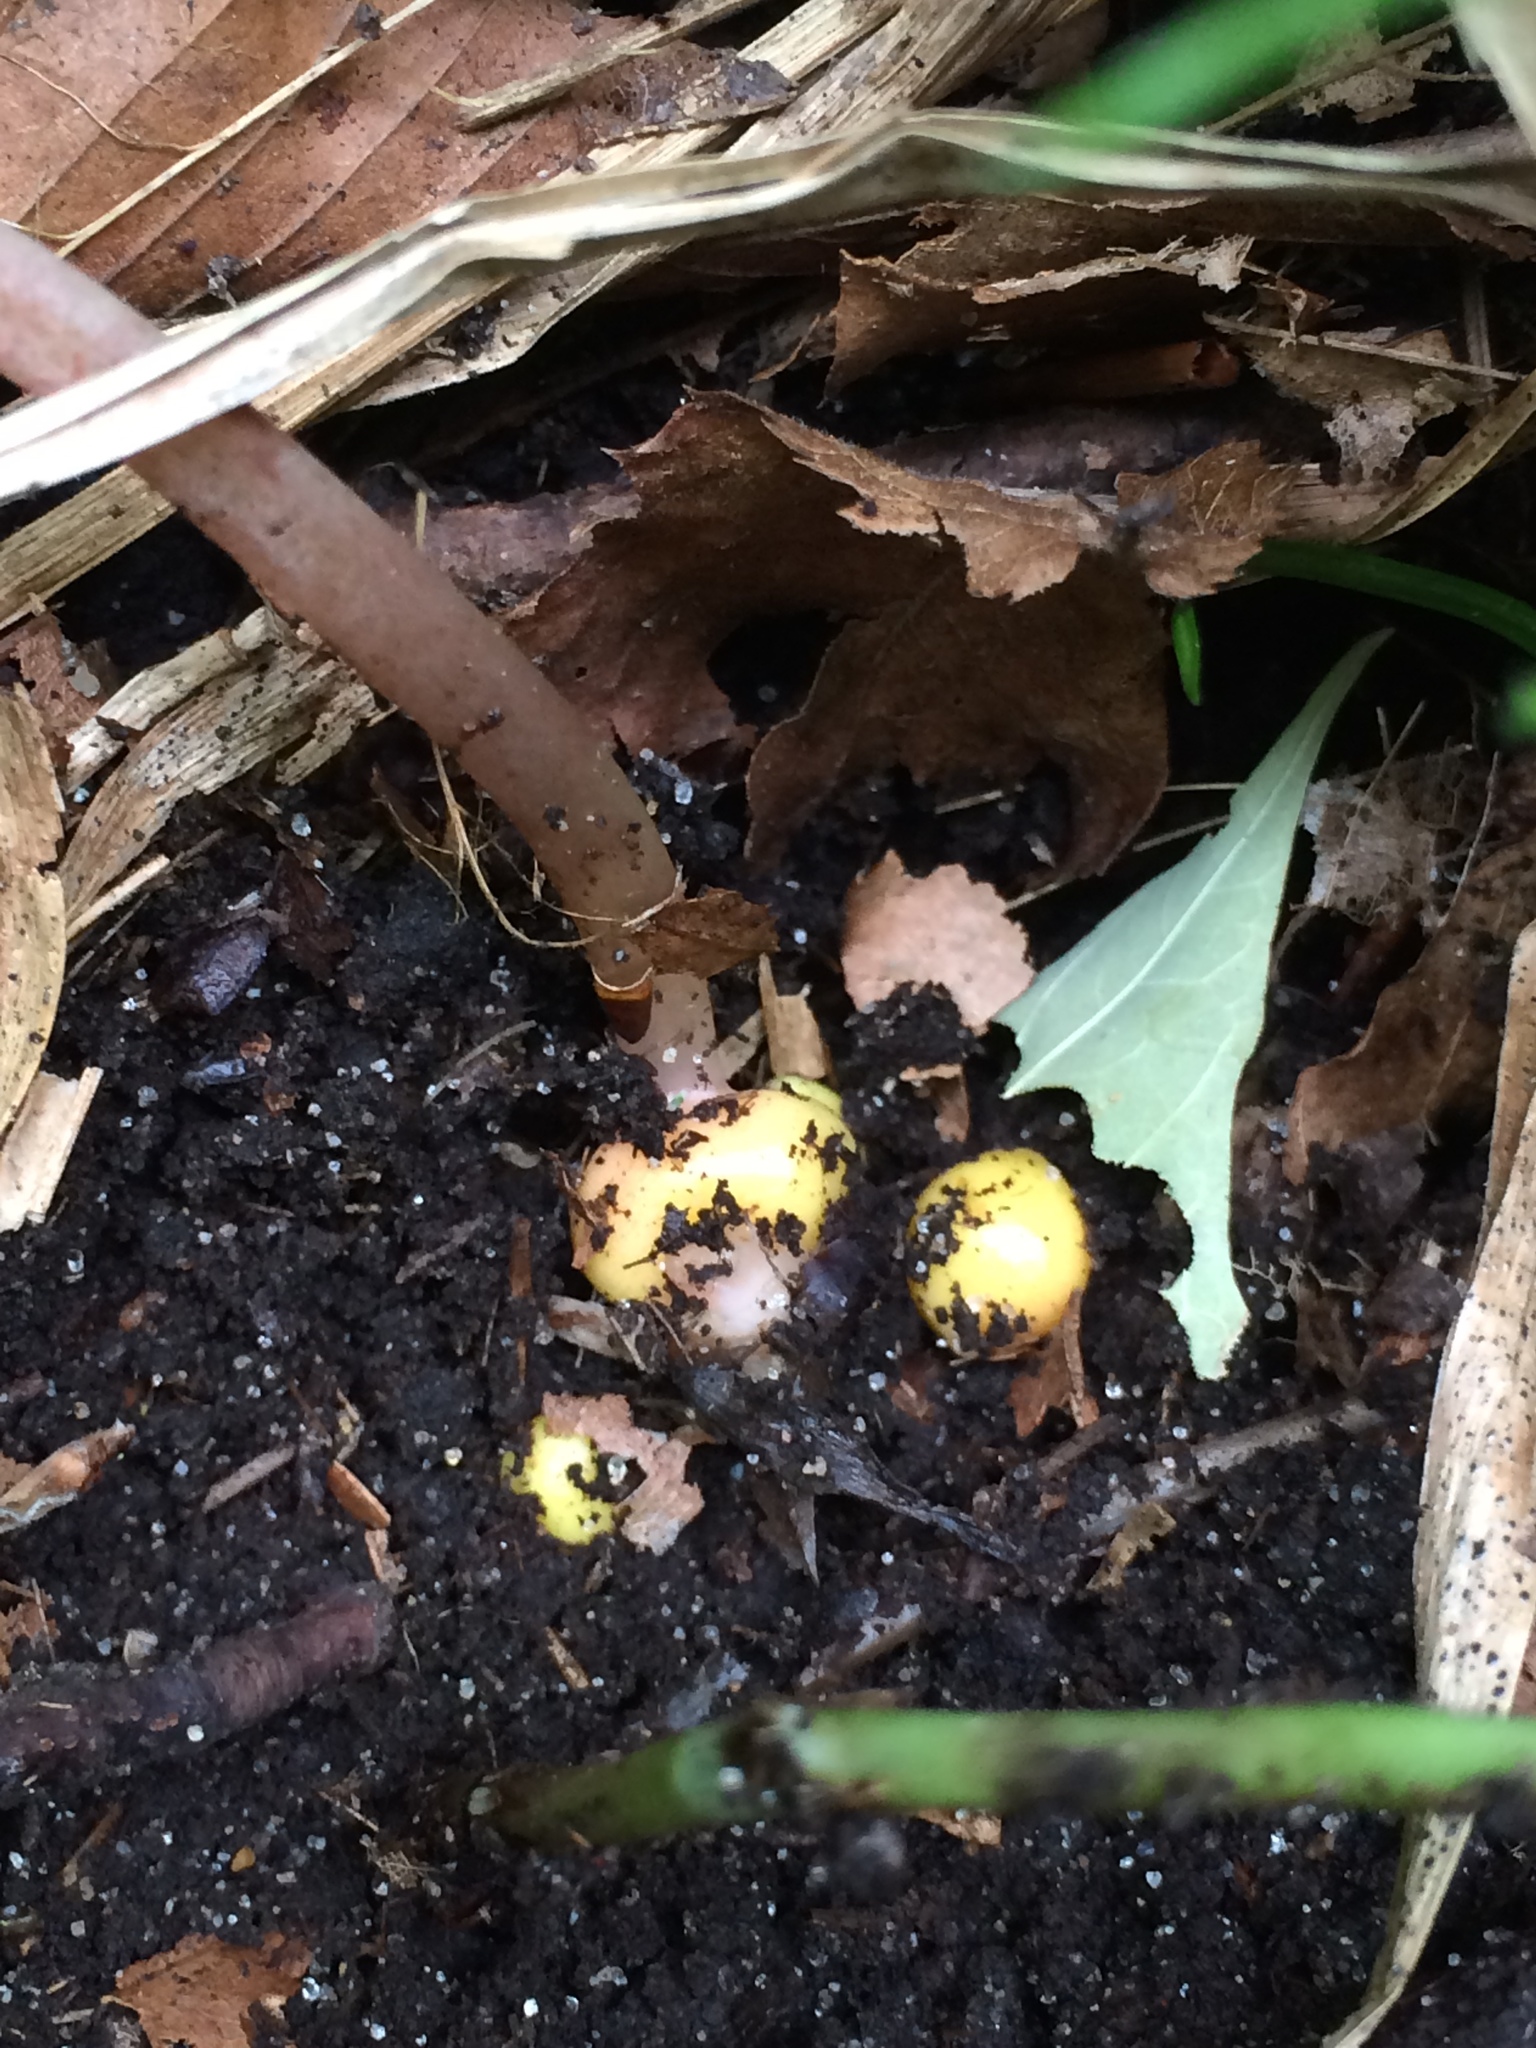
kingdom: Plantae
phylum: Tracheophyta
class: Magnoliopsida
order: Ranunculales
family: Papaveraceae
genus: Dicentra
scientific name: Dicentra canadensis
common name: Squirrel-corn
